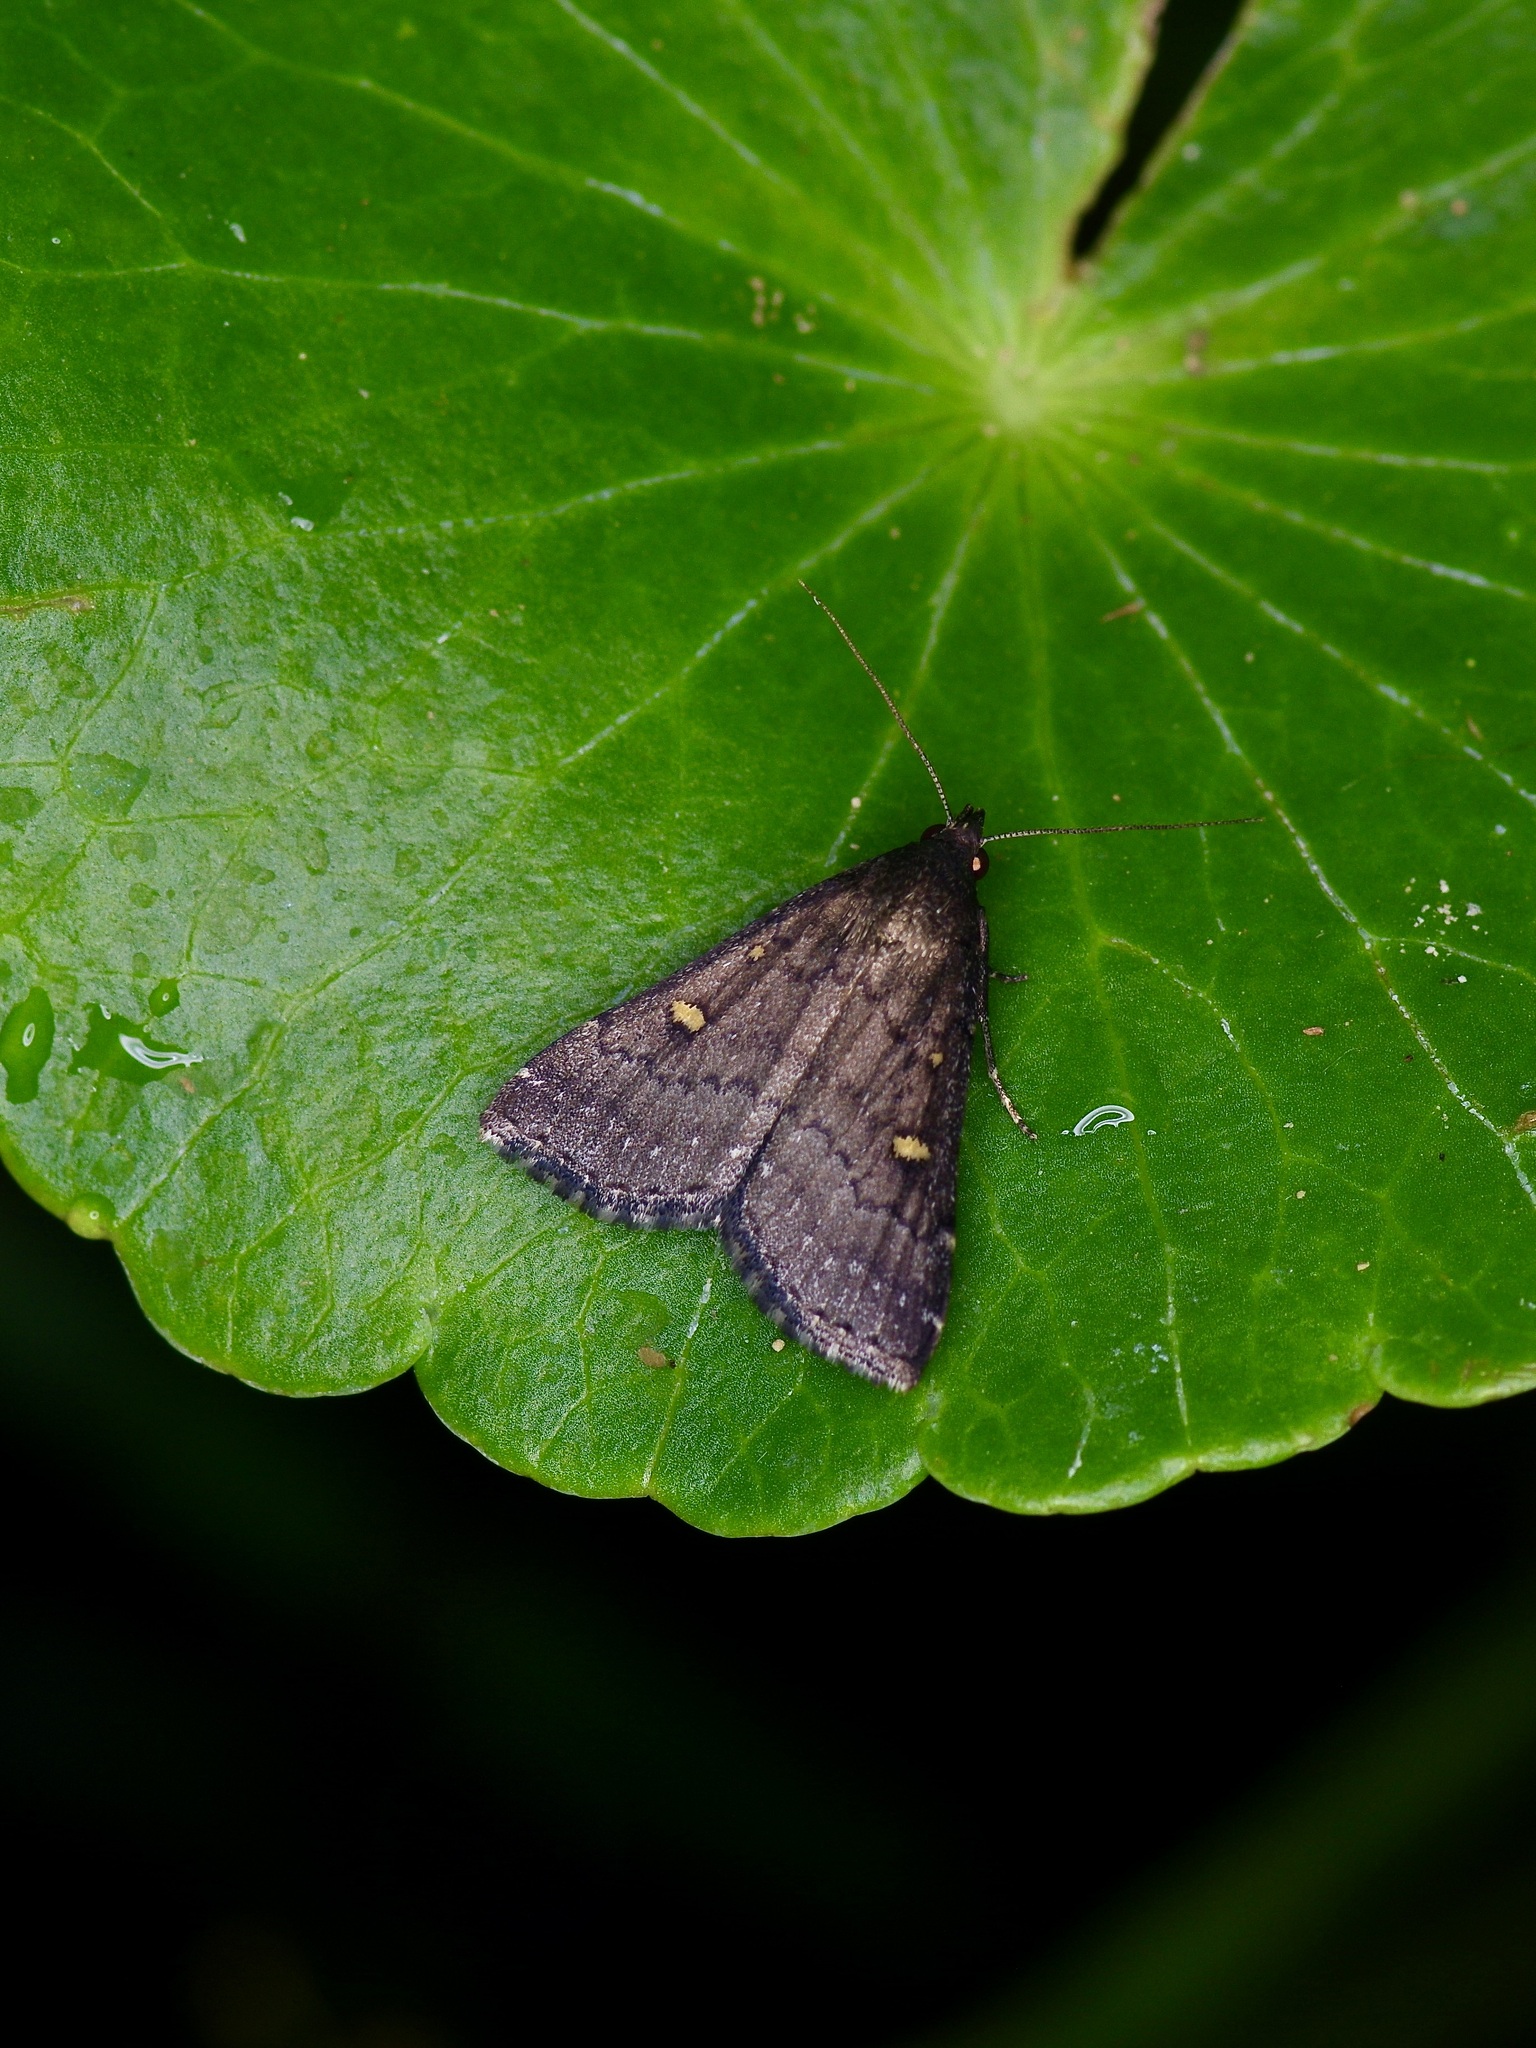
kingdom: Animalia
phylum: Arthropoda
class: Insecta
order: Lepidoptera
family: Erebidae
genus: Tetanolita
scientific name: Tetanolita mynesalis
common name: Smoky tetanolita moth
